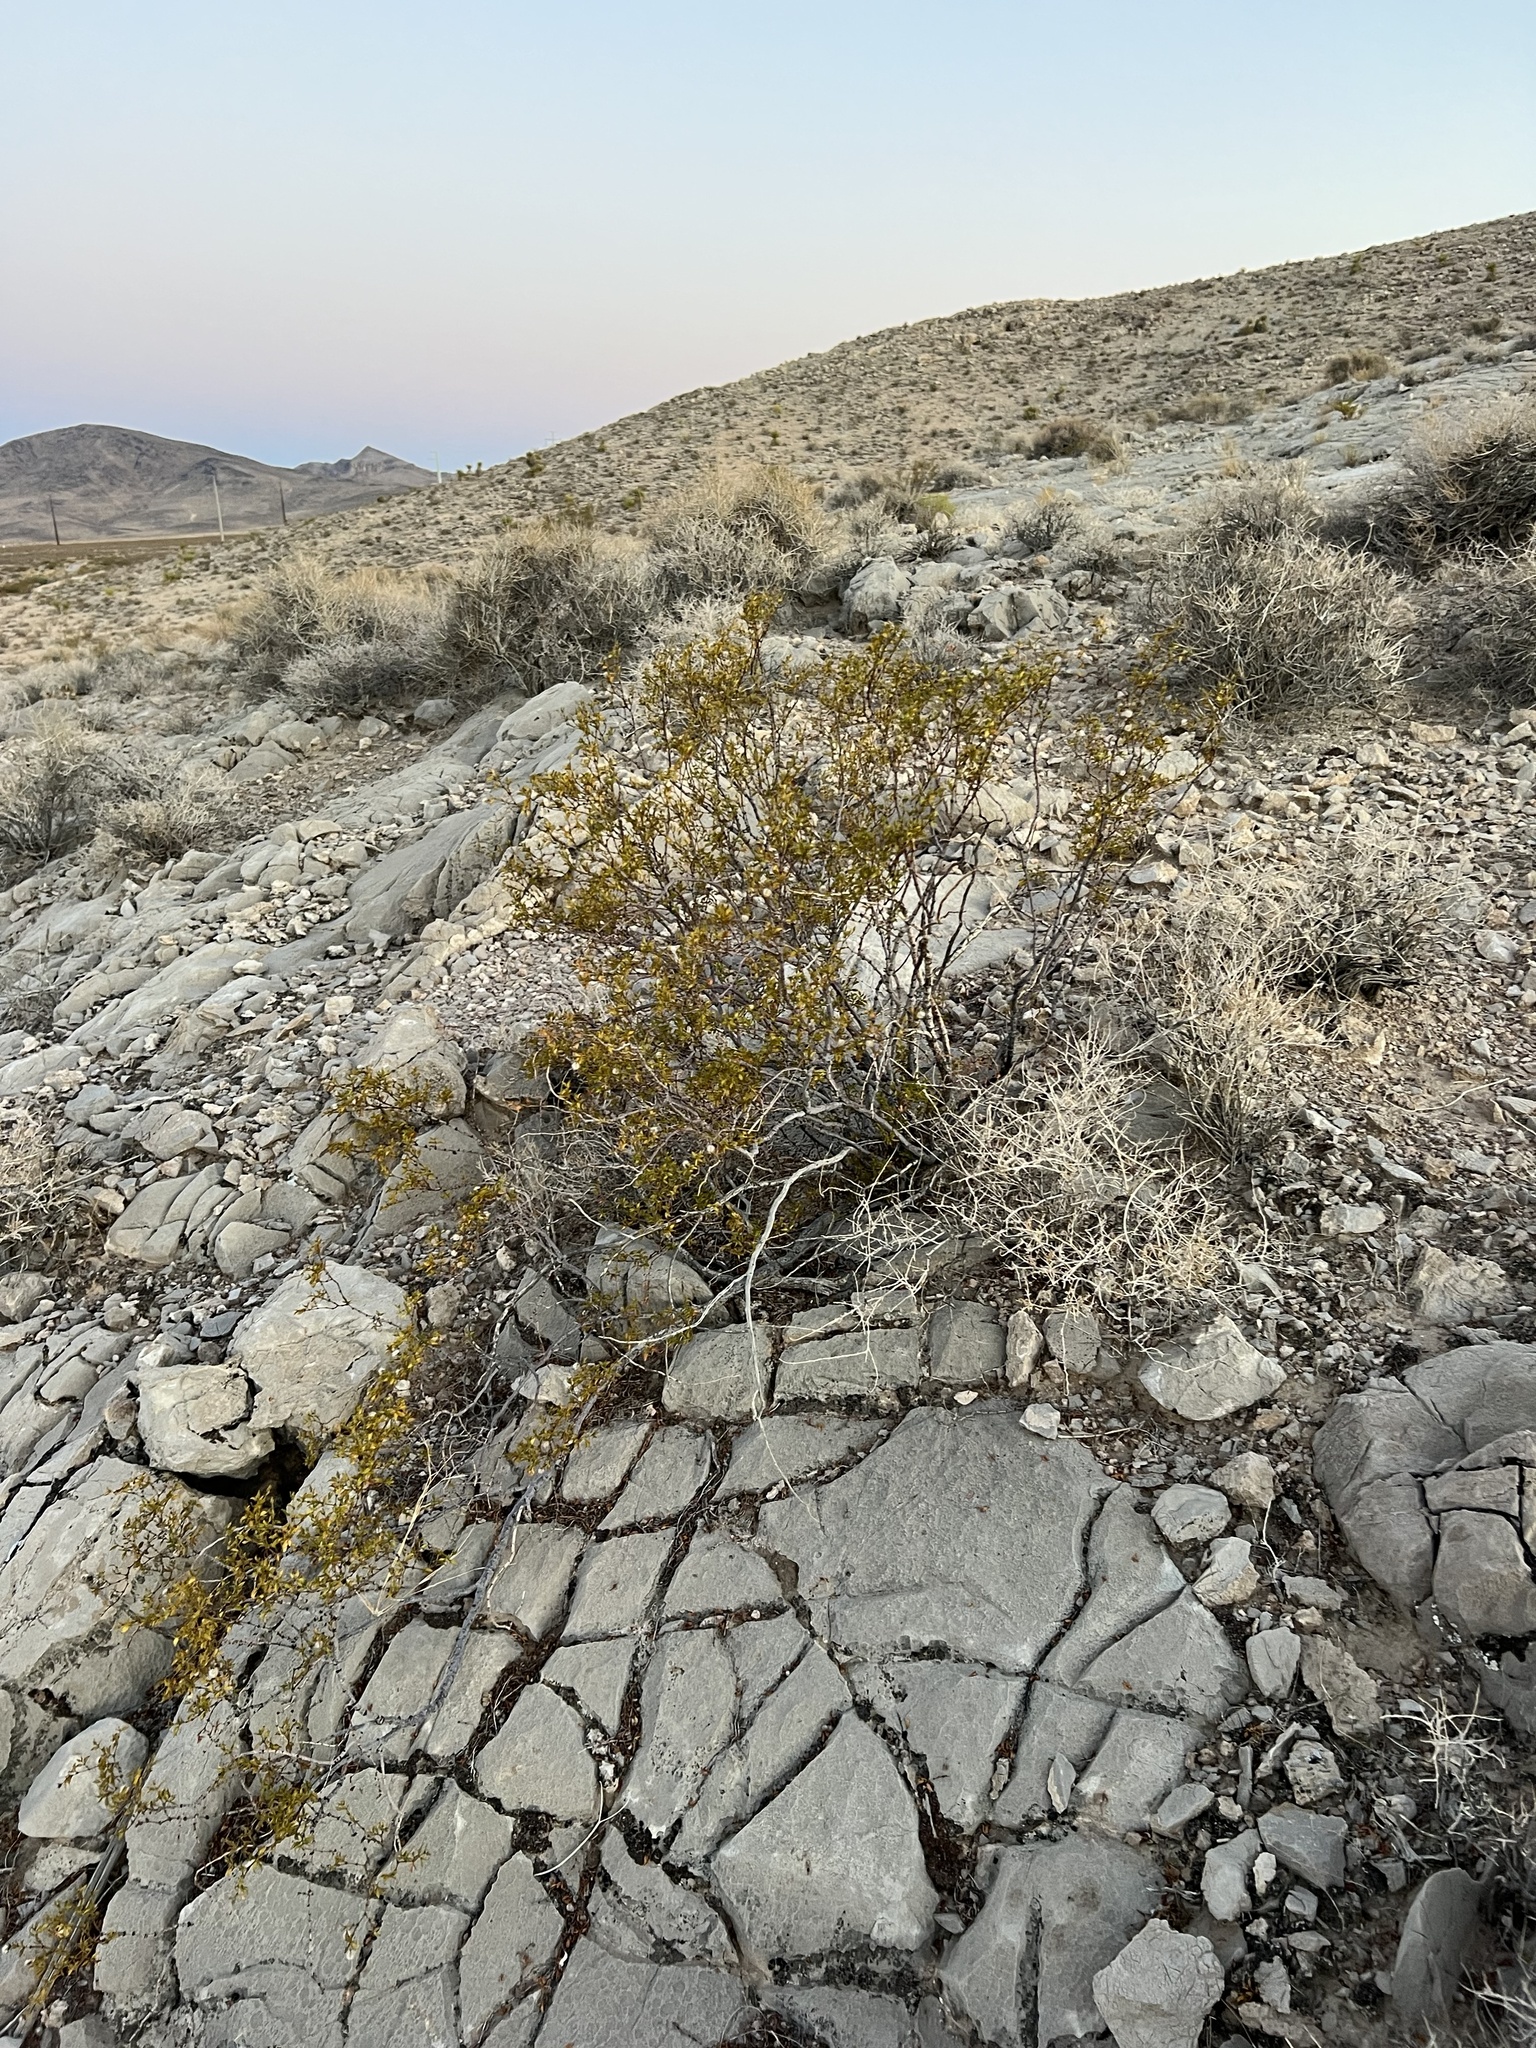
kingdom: Plantae
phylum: Tracheophyta
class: Magnoliopsida
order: Zygophyllales
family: Zygophyllaceae
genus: Larrea
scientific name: Larrea tridentata
